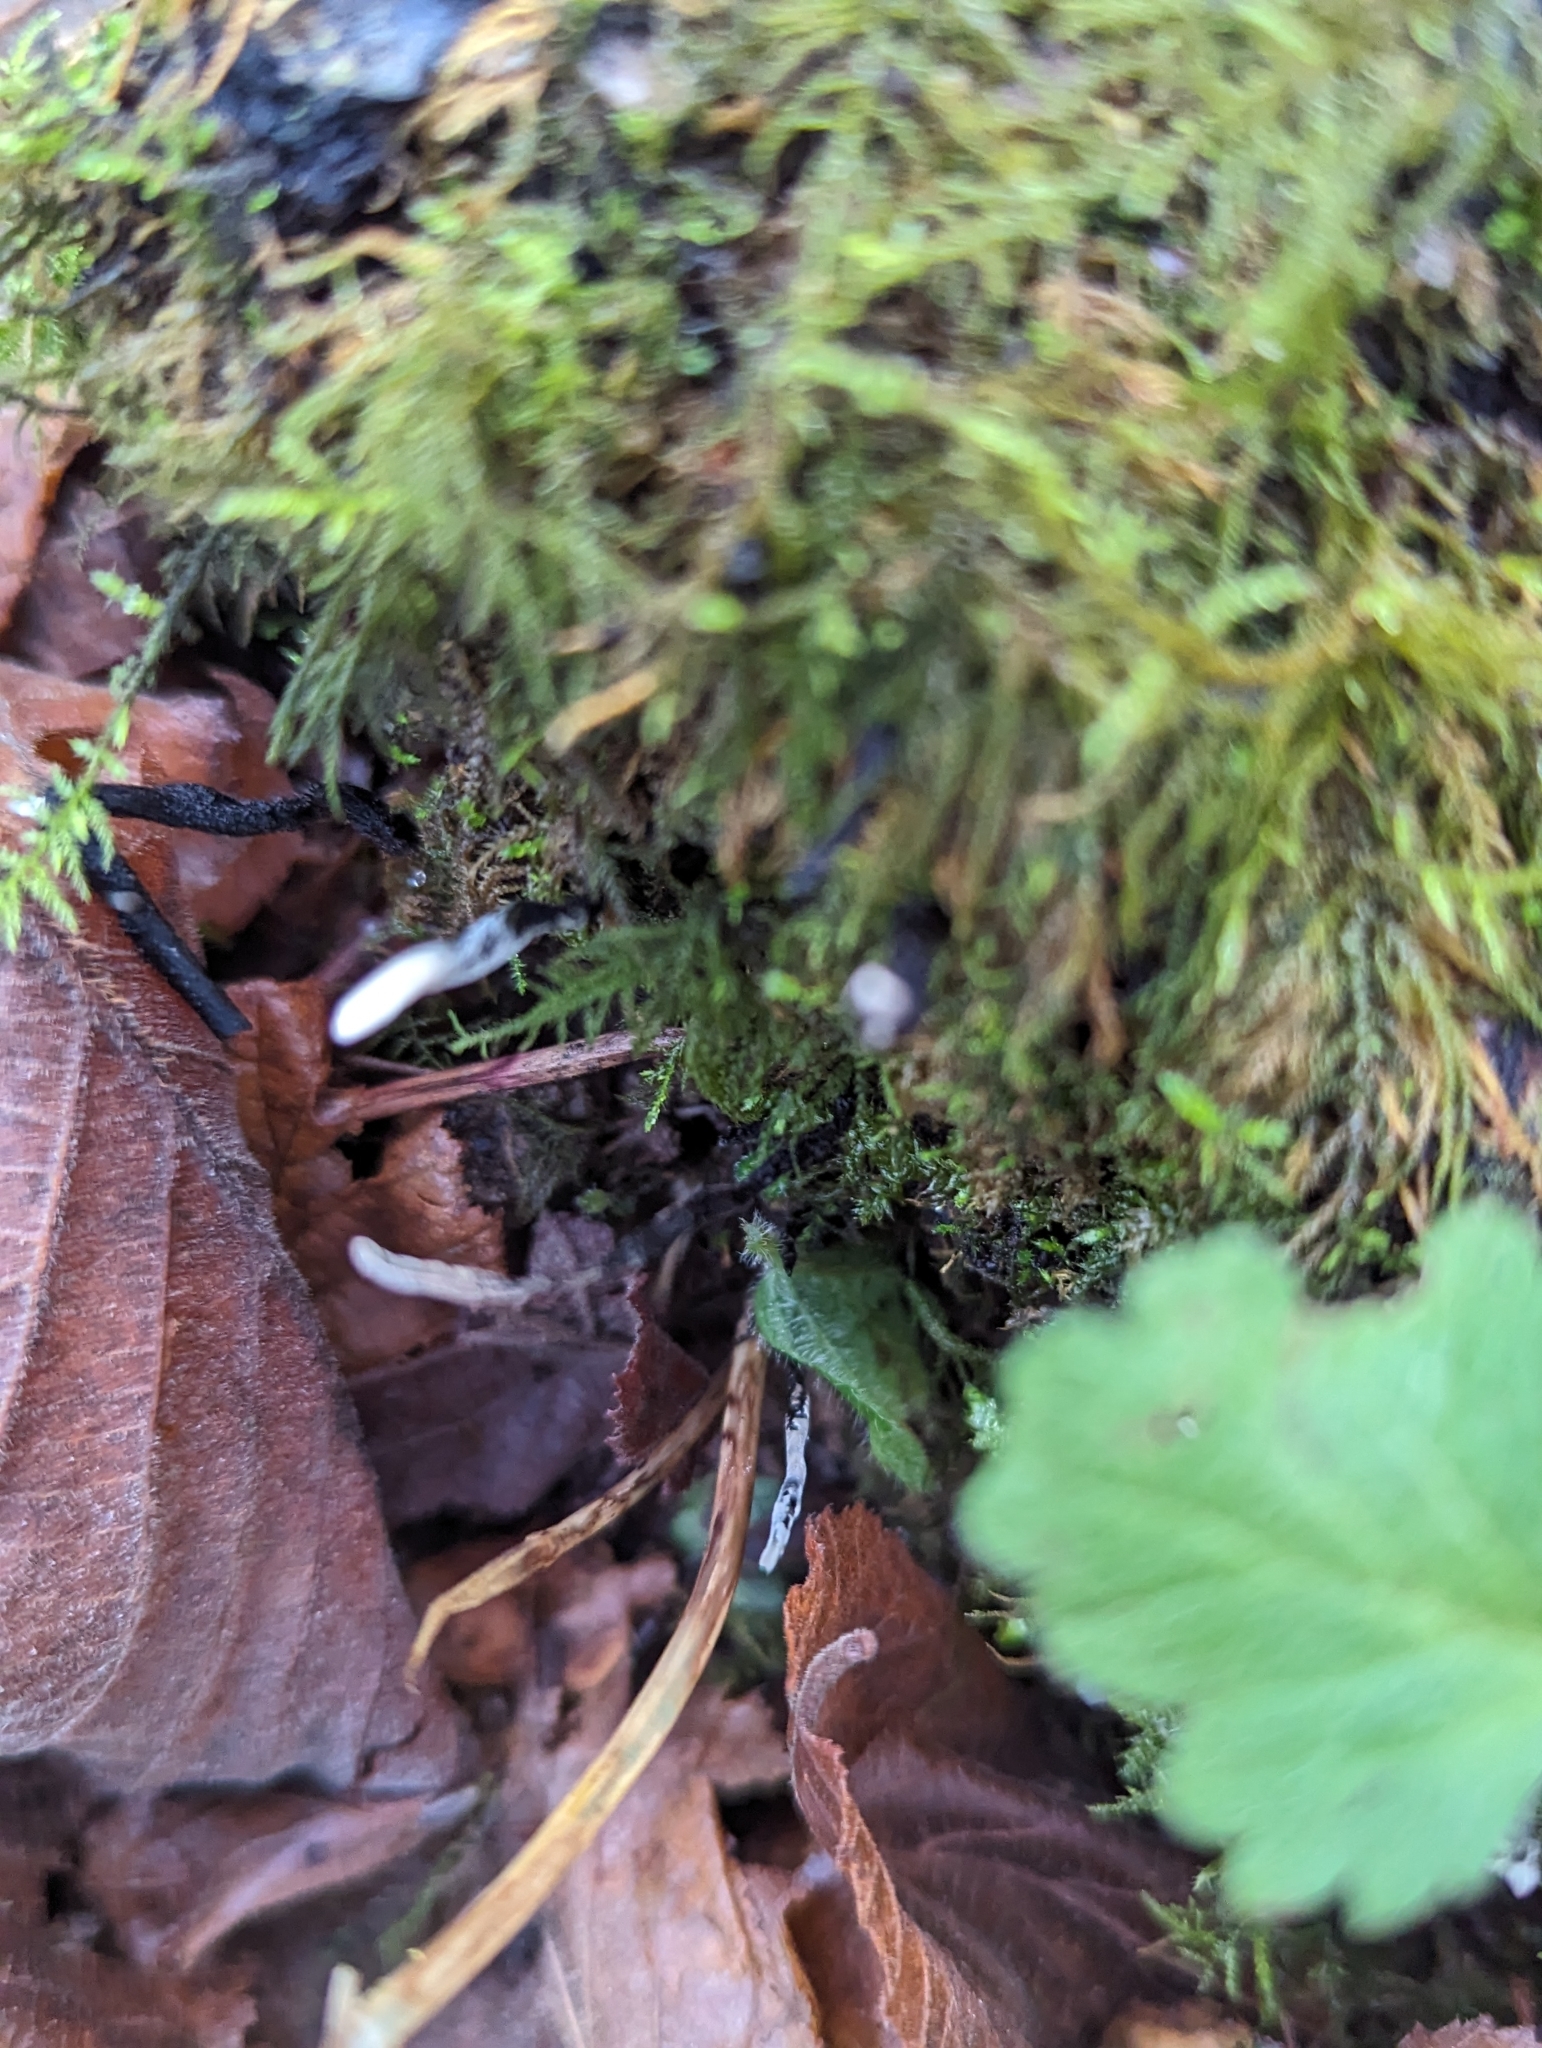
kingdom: Fungi
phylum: Ascomycota
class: Sordariomycetes
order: Xylariales
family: Xylariaceae
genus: Xylaria
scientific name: Xylaria hypoxylon
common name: Candle-snuff fungus
